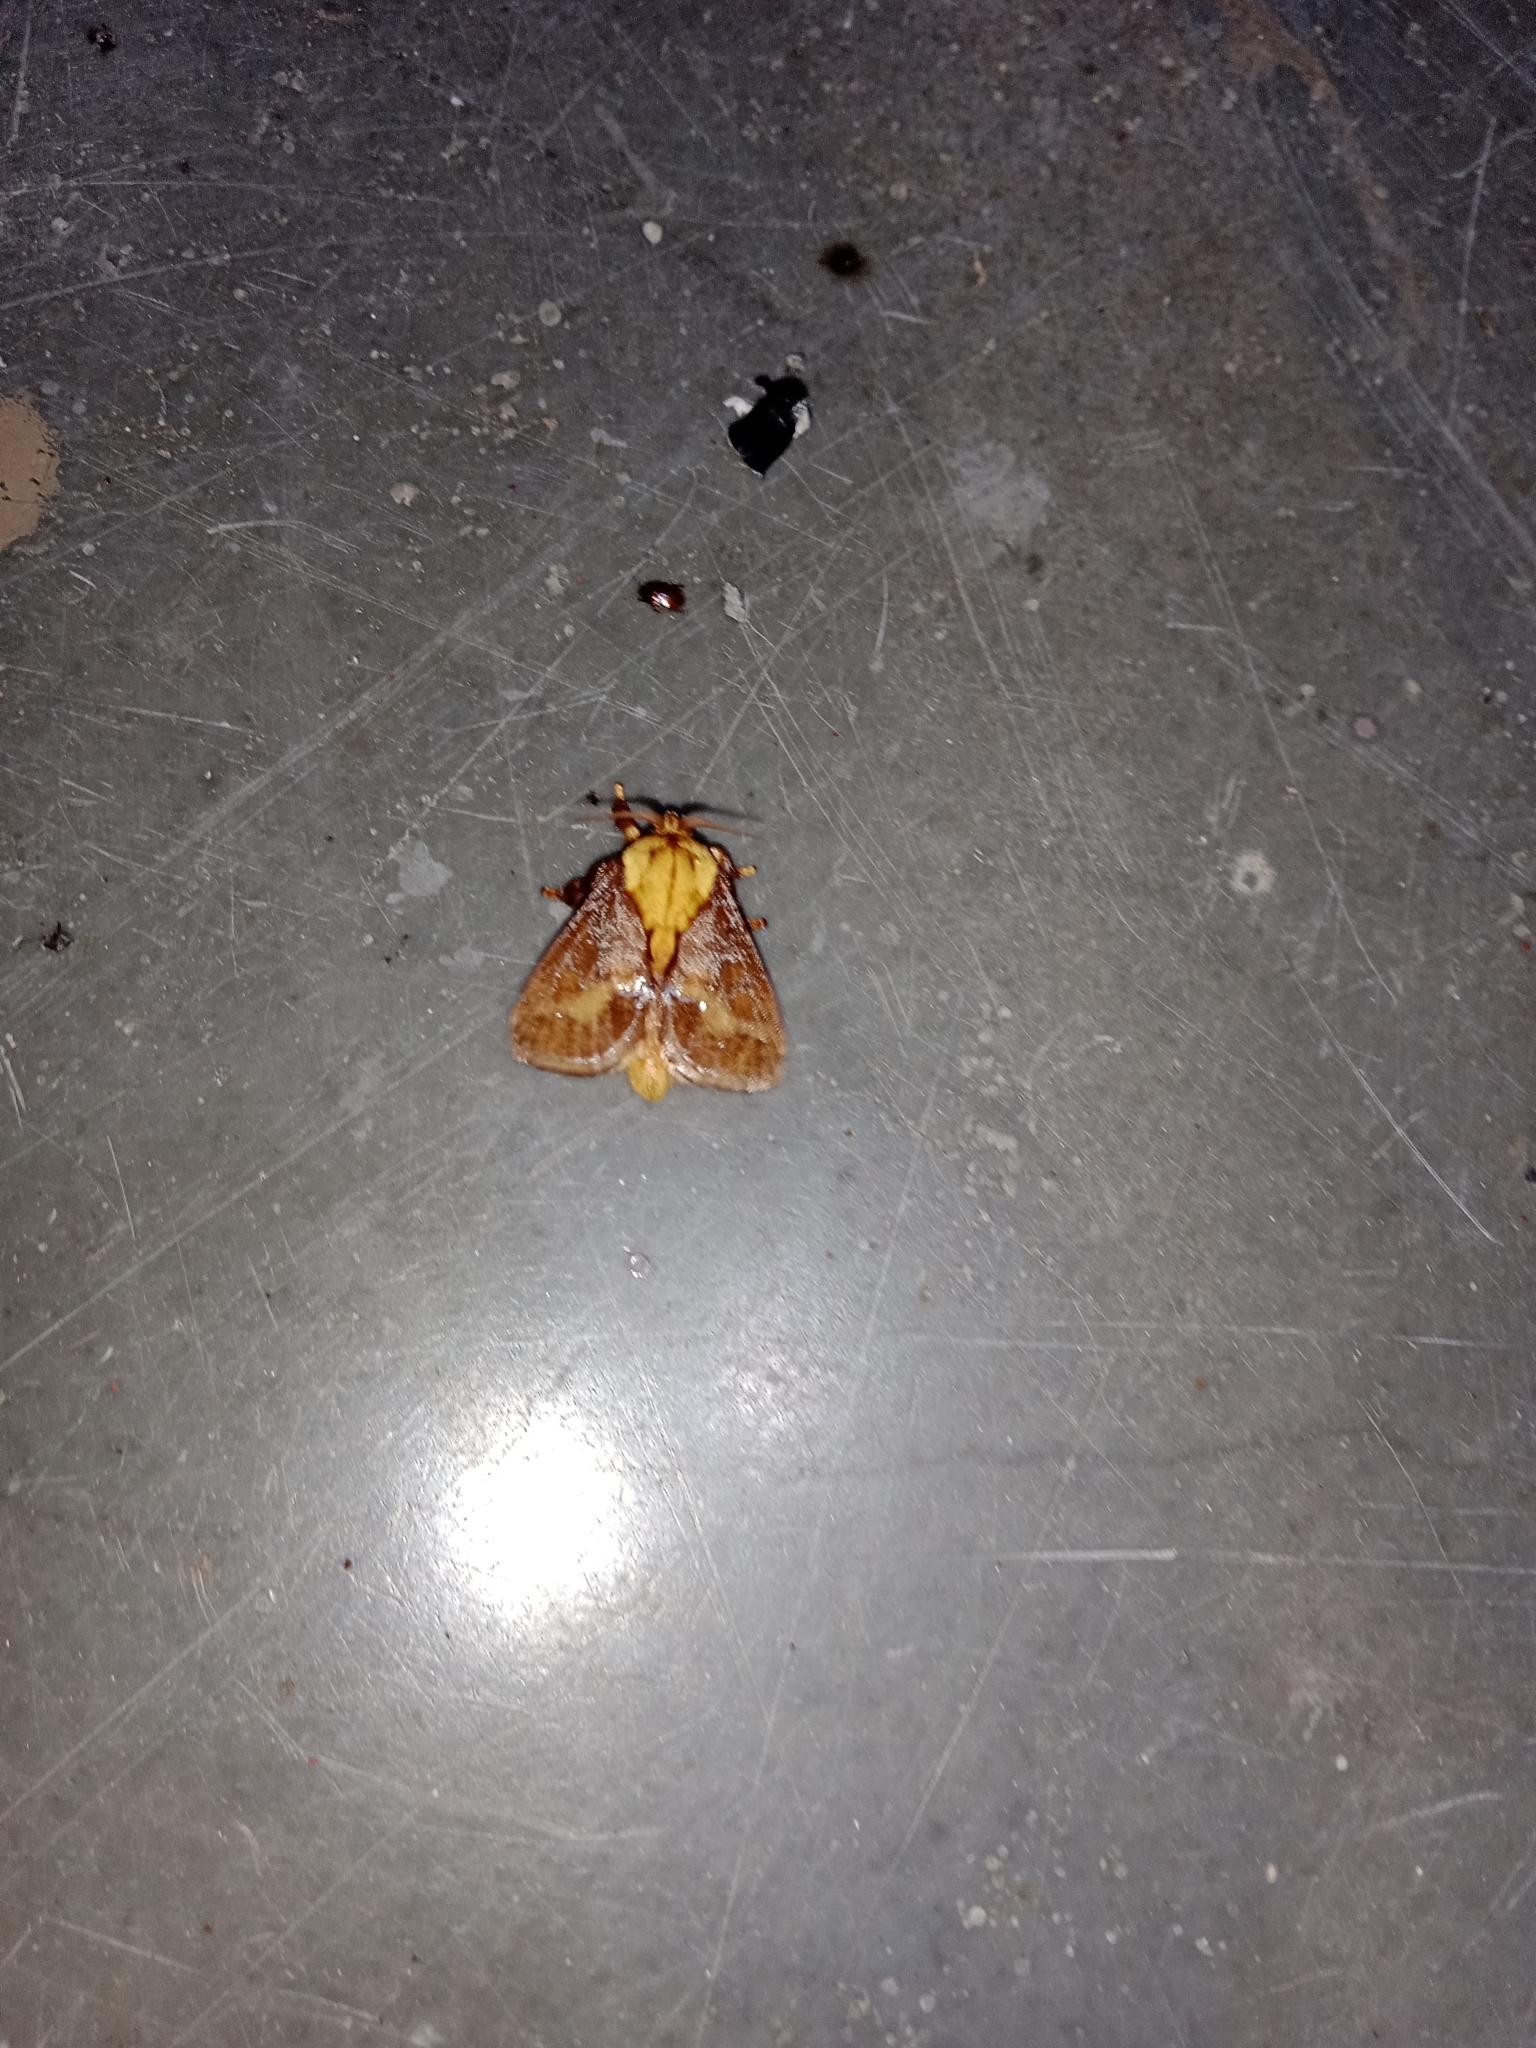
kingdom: Animalia
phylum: Arthropoda
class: Insecta
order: Lepidoptera
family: Limacodidae
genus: Miresa
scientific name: Miresa argentifera
